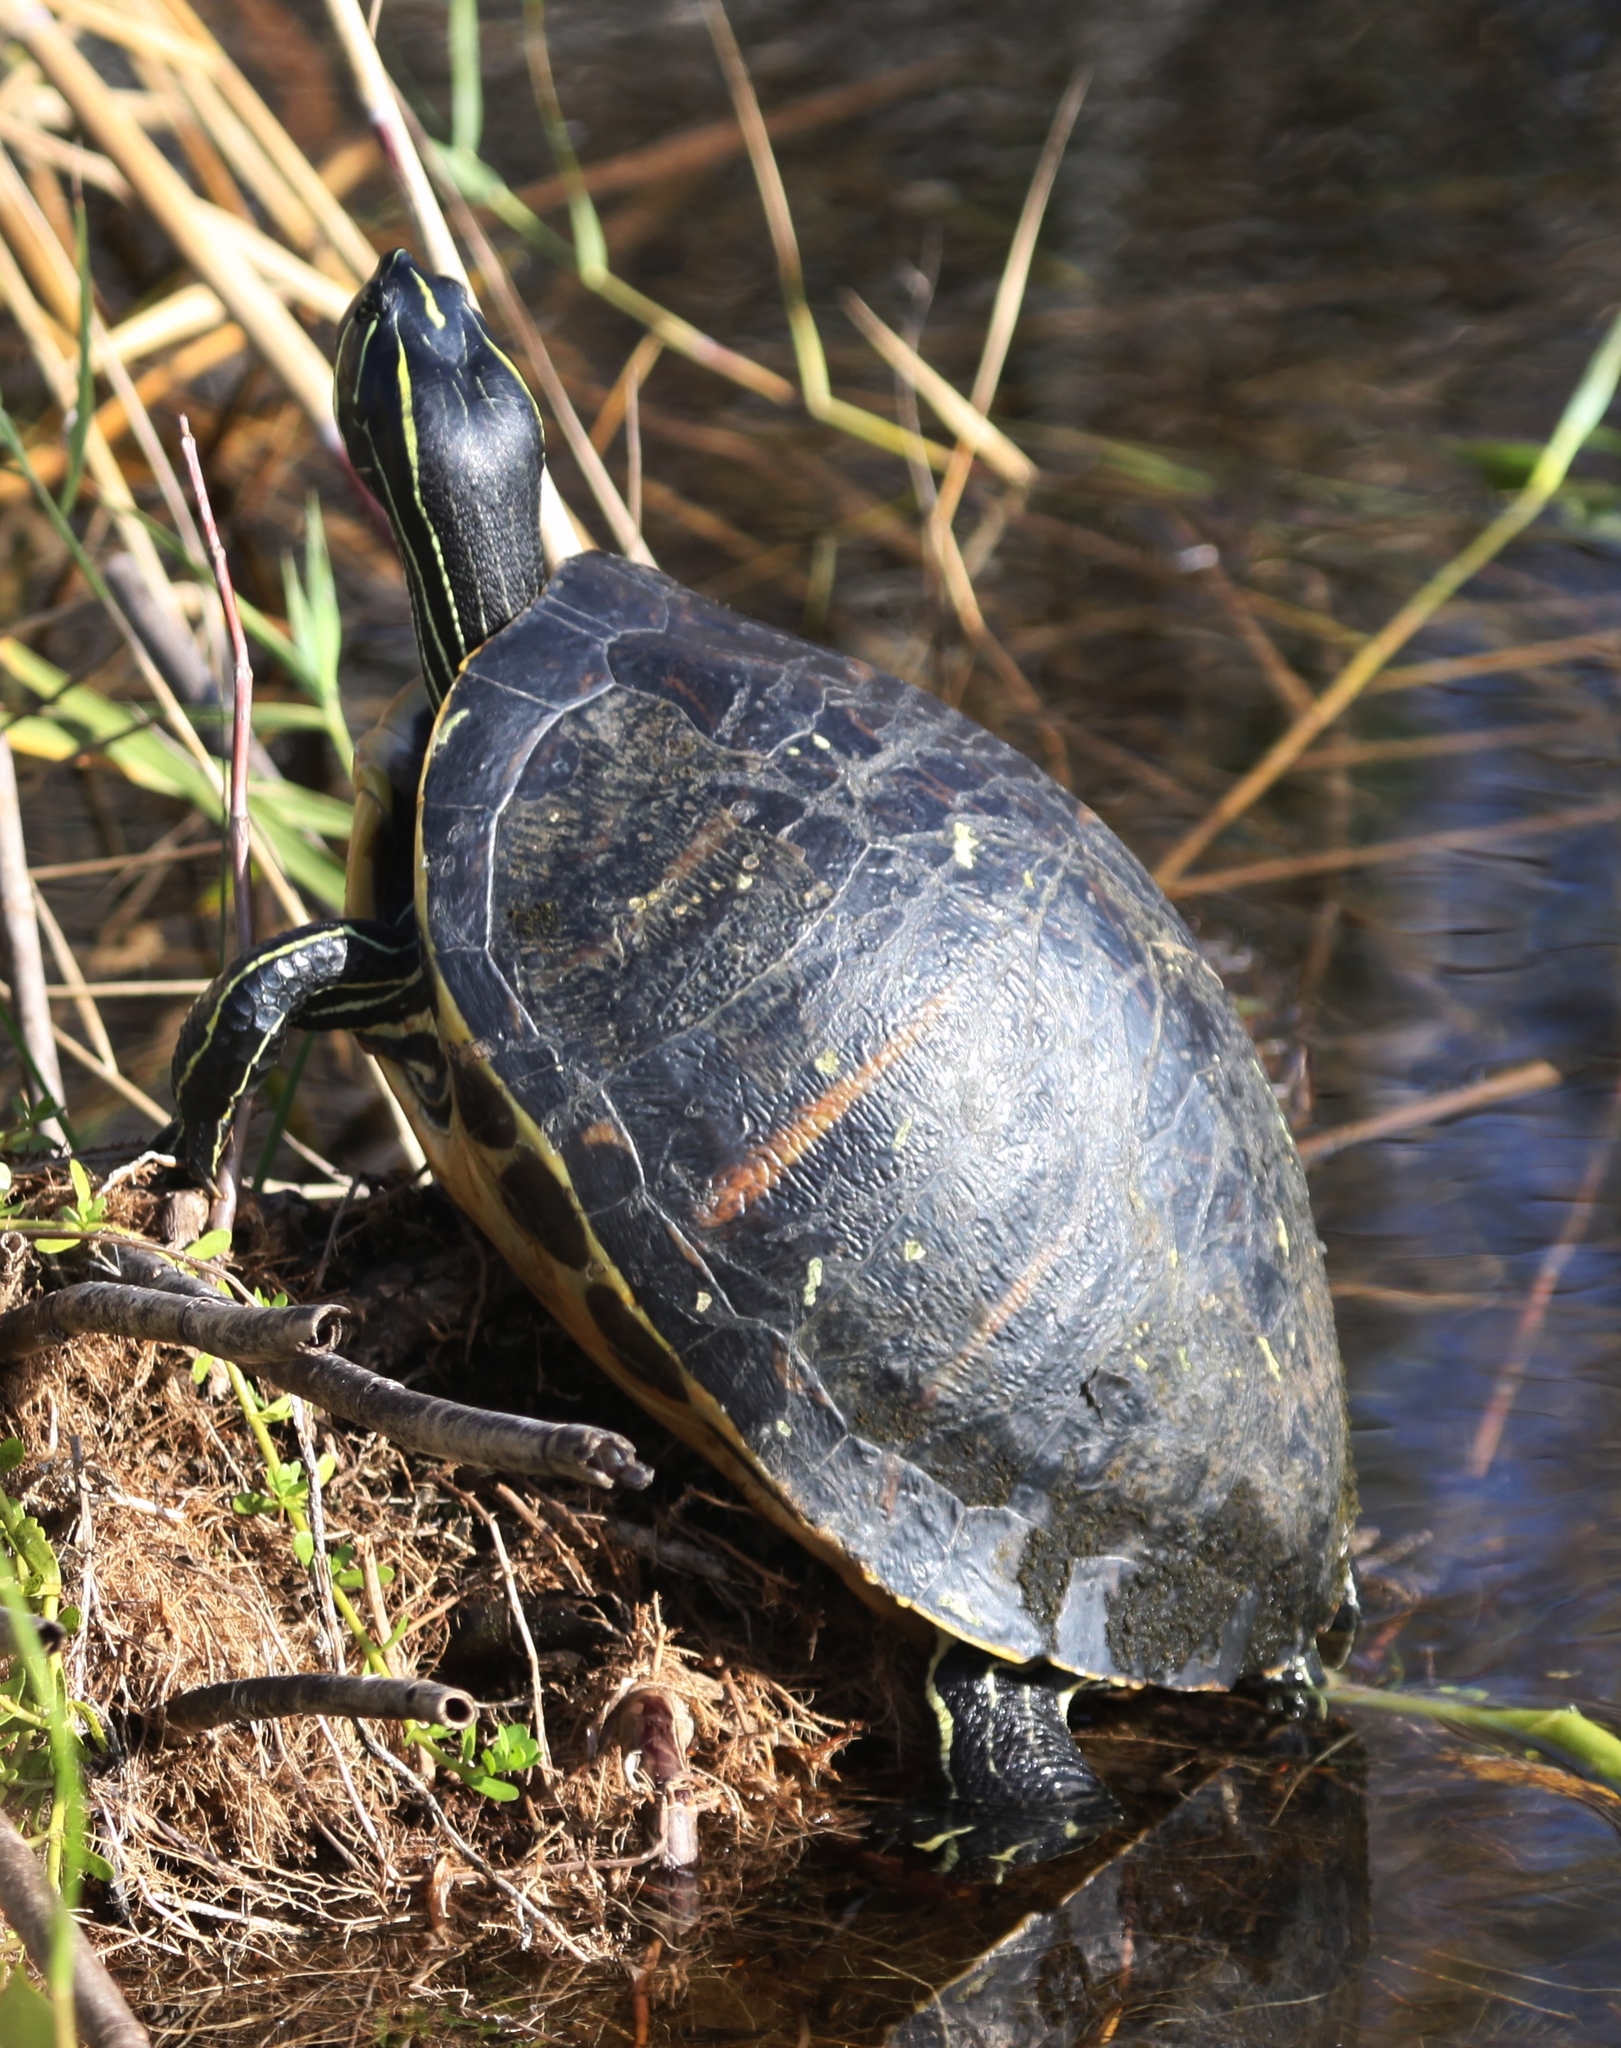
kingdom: Animalia
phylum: Chordata
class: Testudines
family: Emydidae
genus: Pseudemys
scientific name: Pseudemys nelsoni
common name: Florida red-bellied turtle
